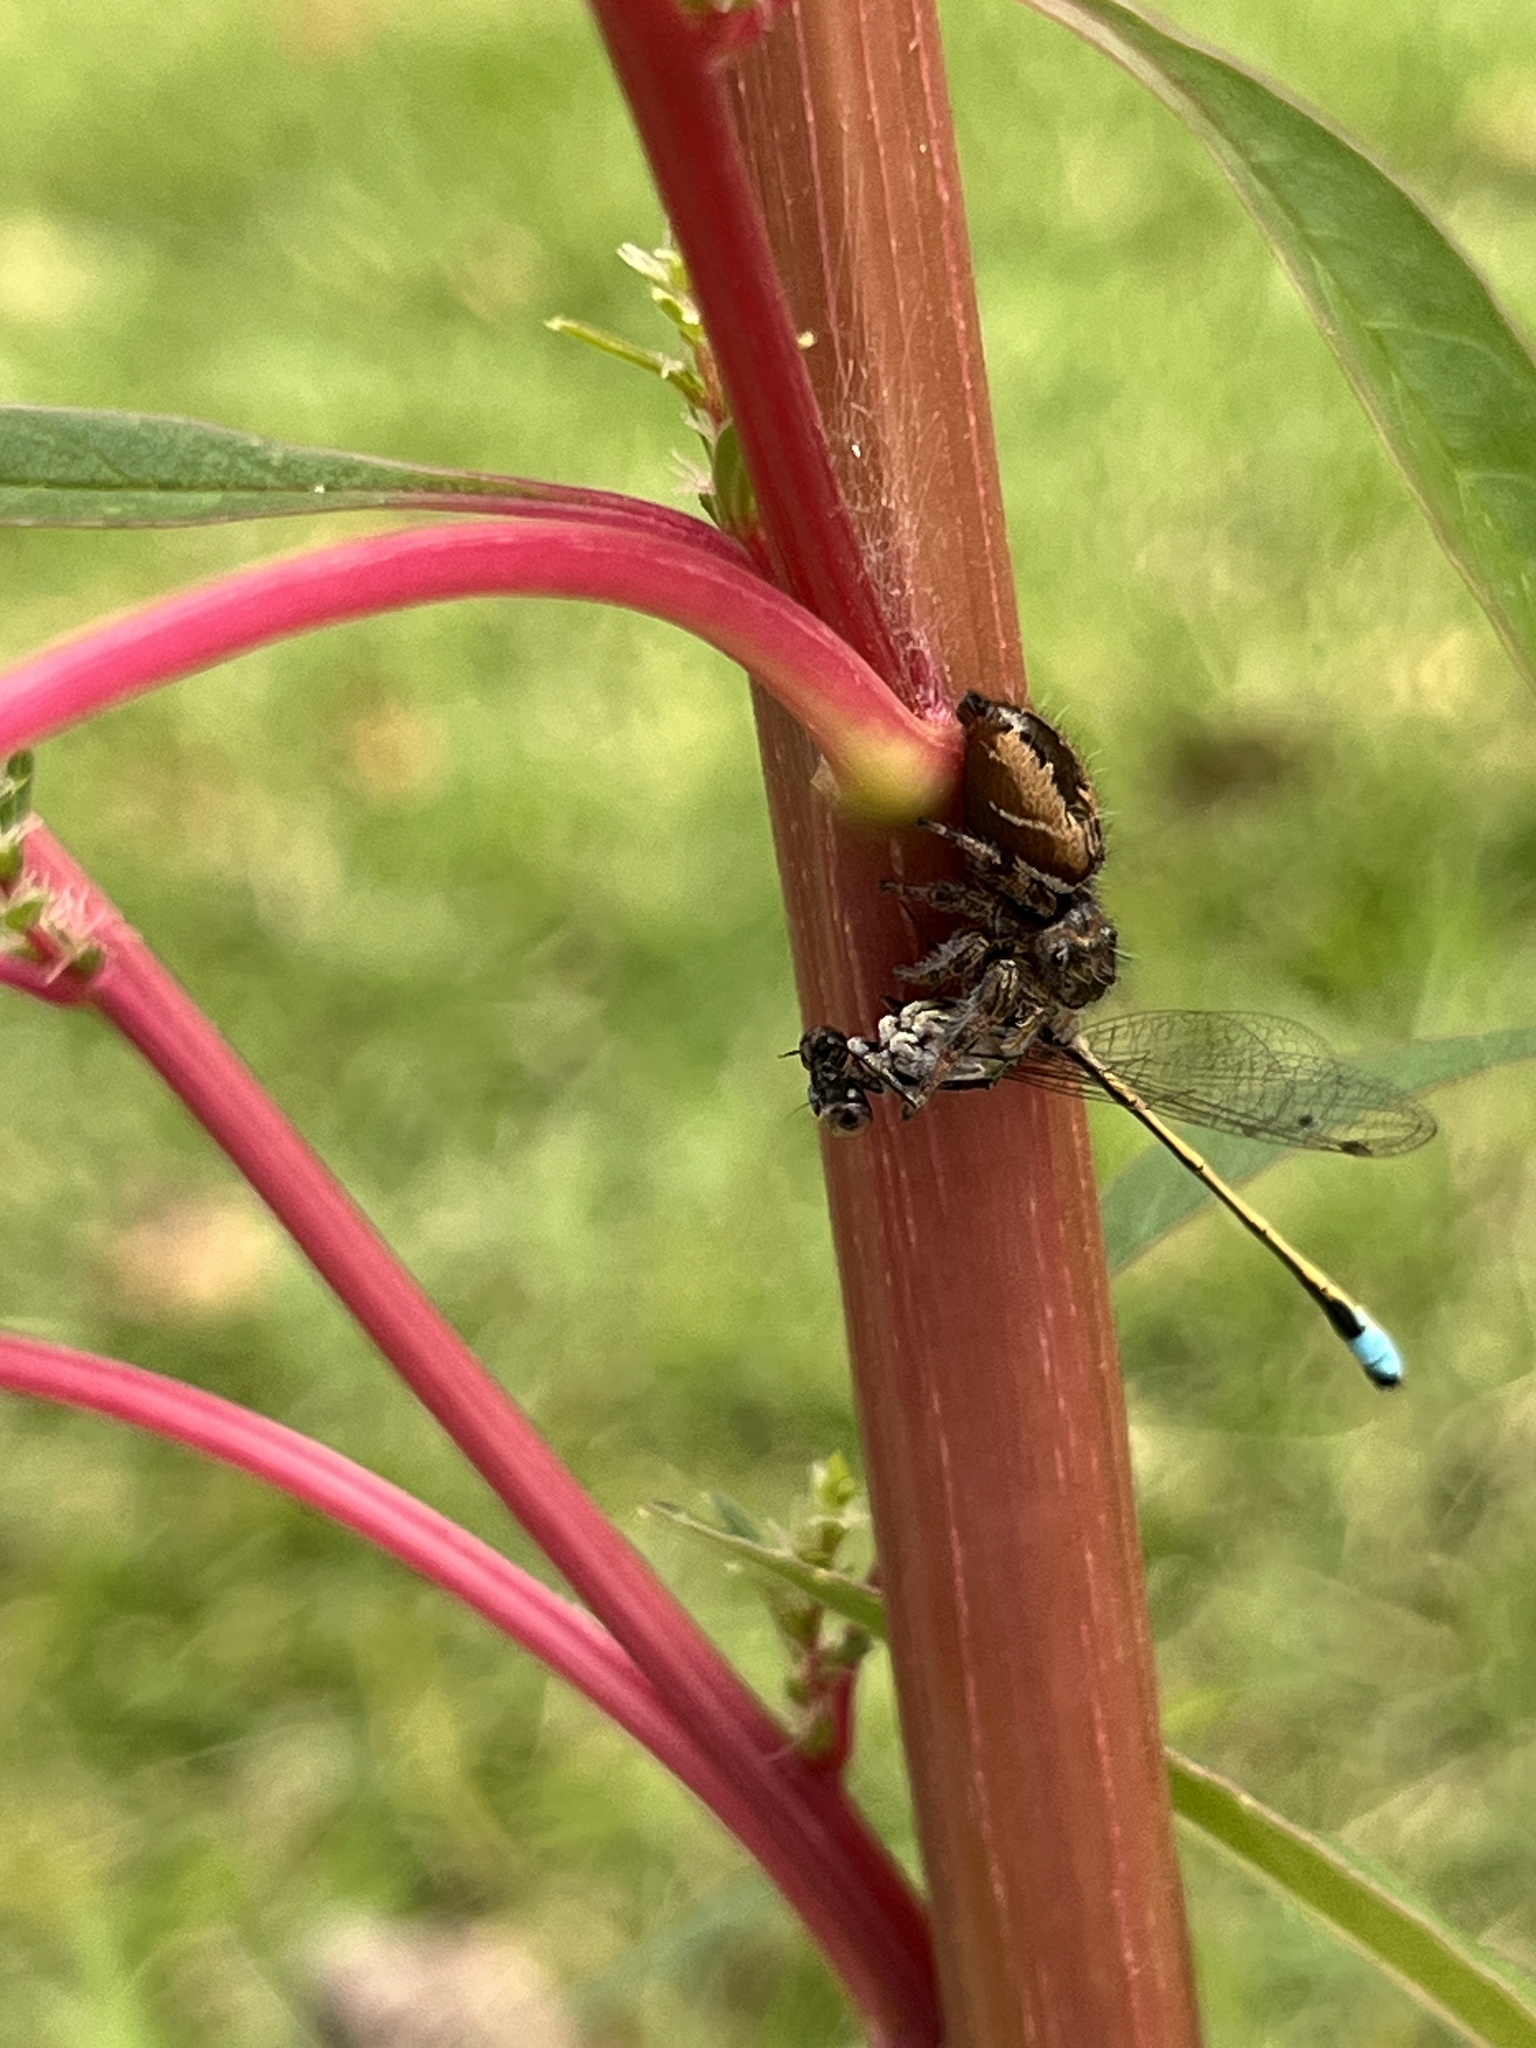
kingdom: Animalia
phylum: Arthropoda
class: Arachnida
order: Araneae
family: Salticidae
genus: Phidippus
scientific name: Phidippus clarus
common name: Brilliant jumping spider
